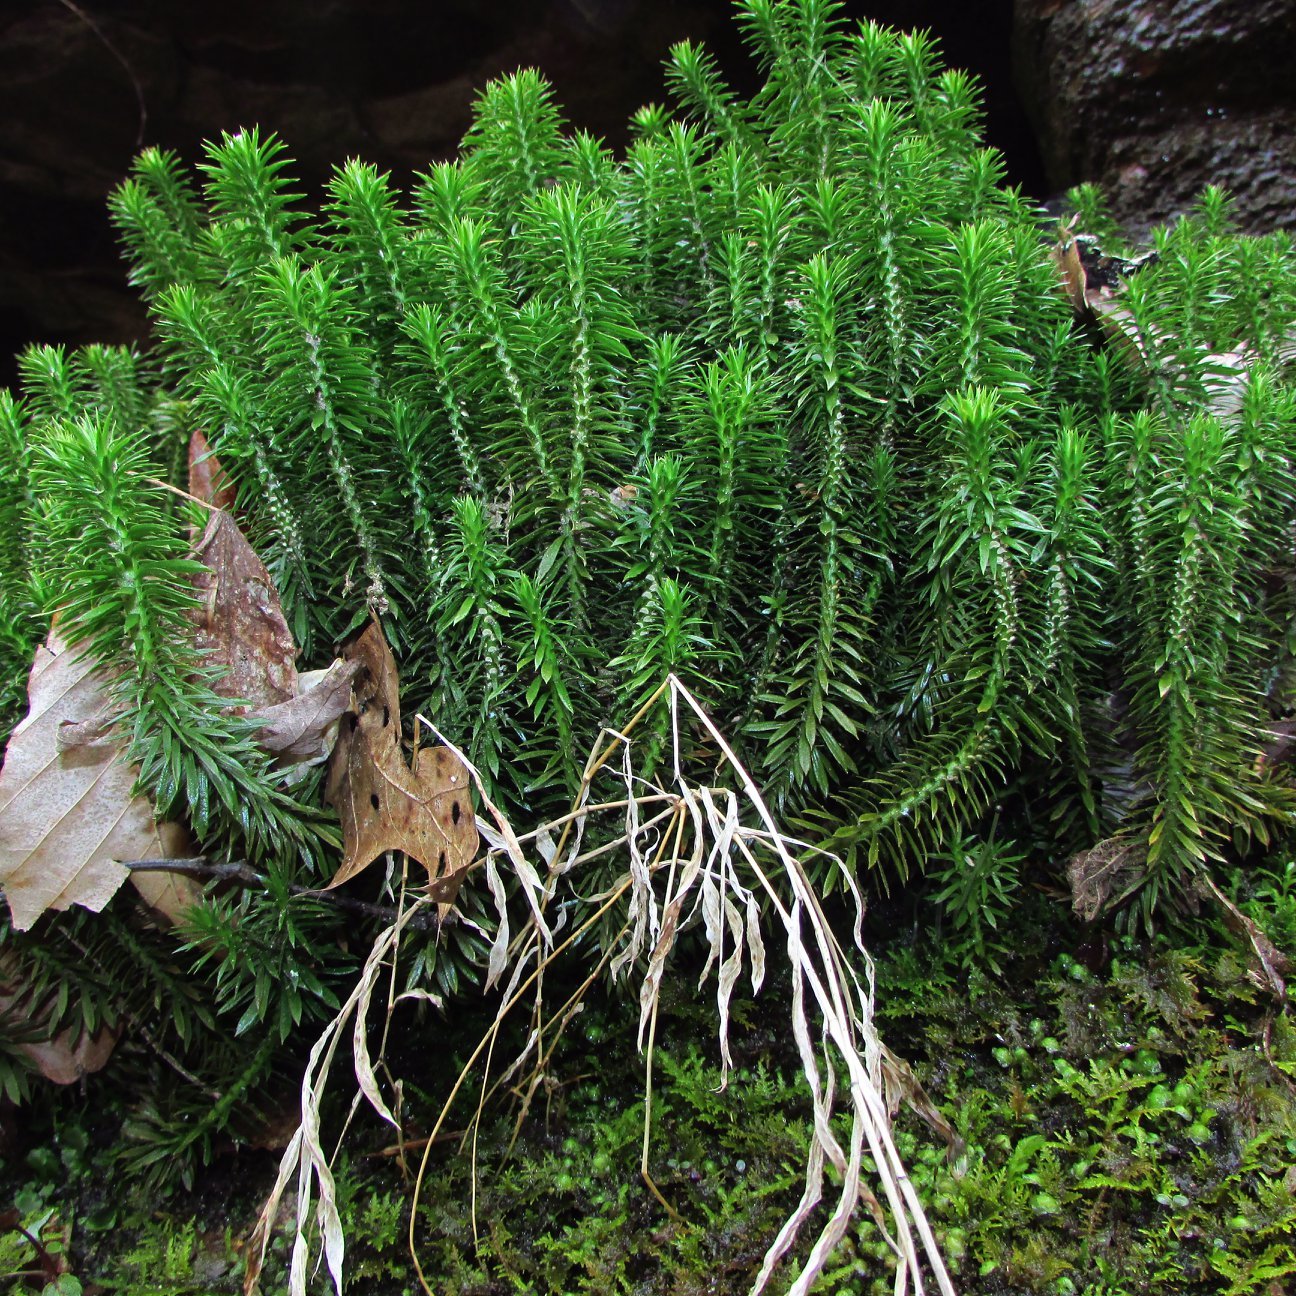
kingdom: Plantae
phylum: Tracheophyta
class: Lycopodiopsida
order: Lycopodiales
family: Lycopodiaceae
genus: Huperzia
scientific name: Huperzia lucidula
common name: Shining clubmoss
